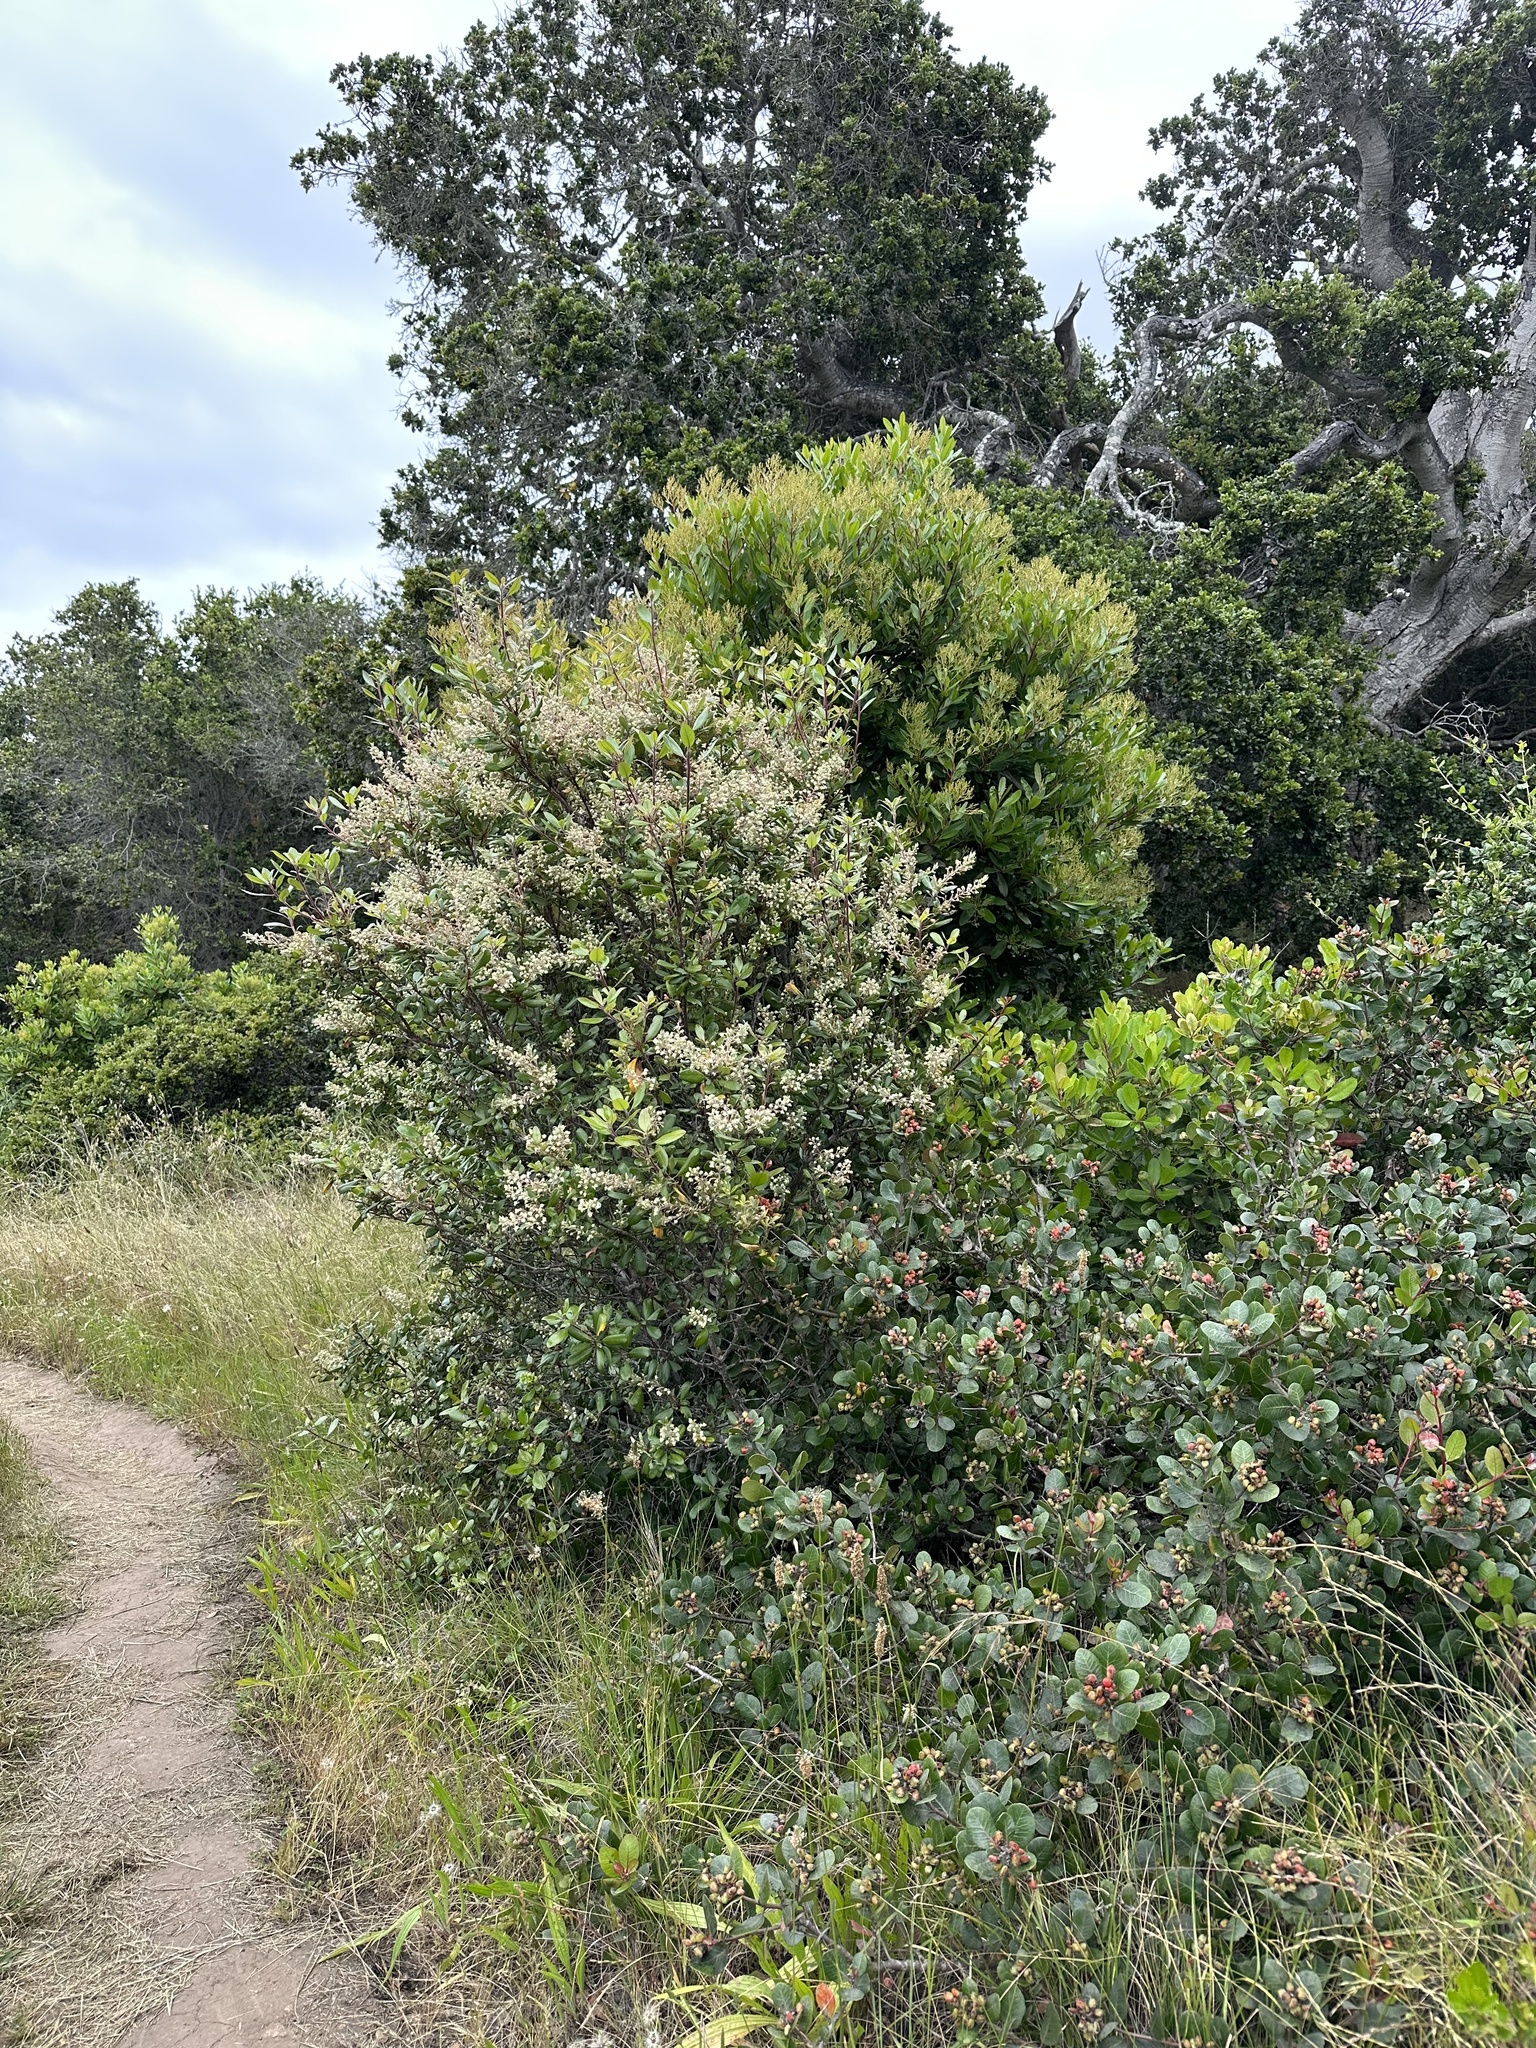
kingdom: Plantae
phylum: Tracheophyta
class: Magnoliopsida
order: Ericales
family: Ericaceae
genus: Comarostaphylis
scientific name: Comarostaphylis diversifolia
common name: Summer-holly
